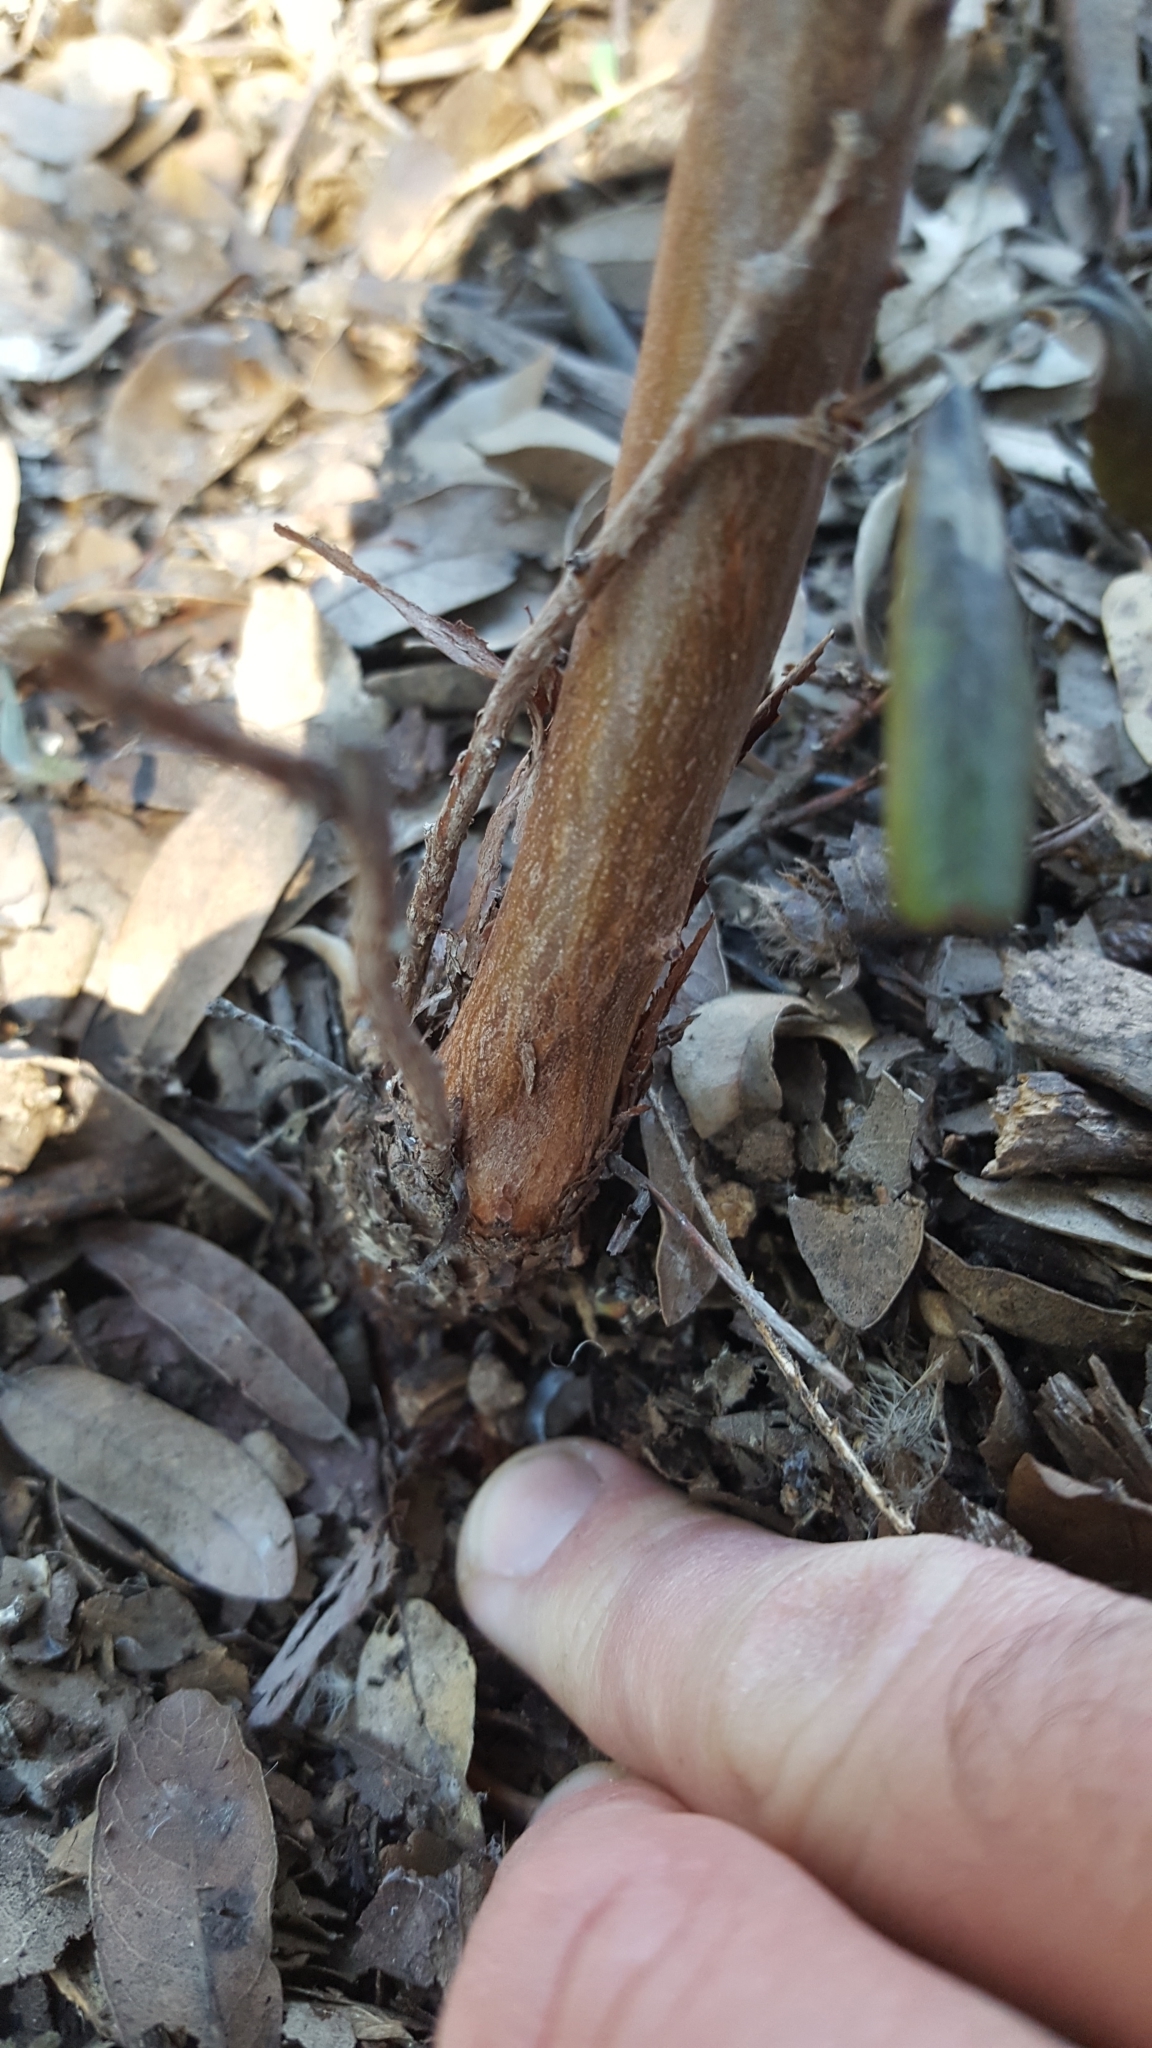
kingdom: Plantae
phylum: Tracheophyta
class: Magnoliopsida
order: Ericales
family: Ericaceae
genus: Arctostaphylos
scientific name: Arctostaphylos bicolor
